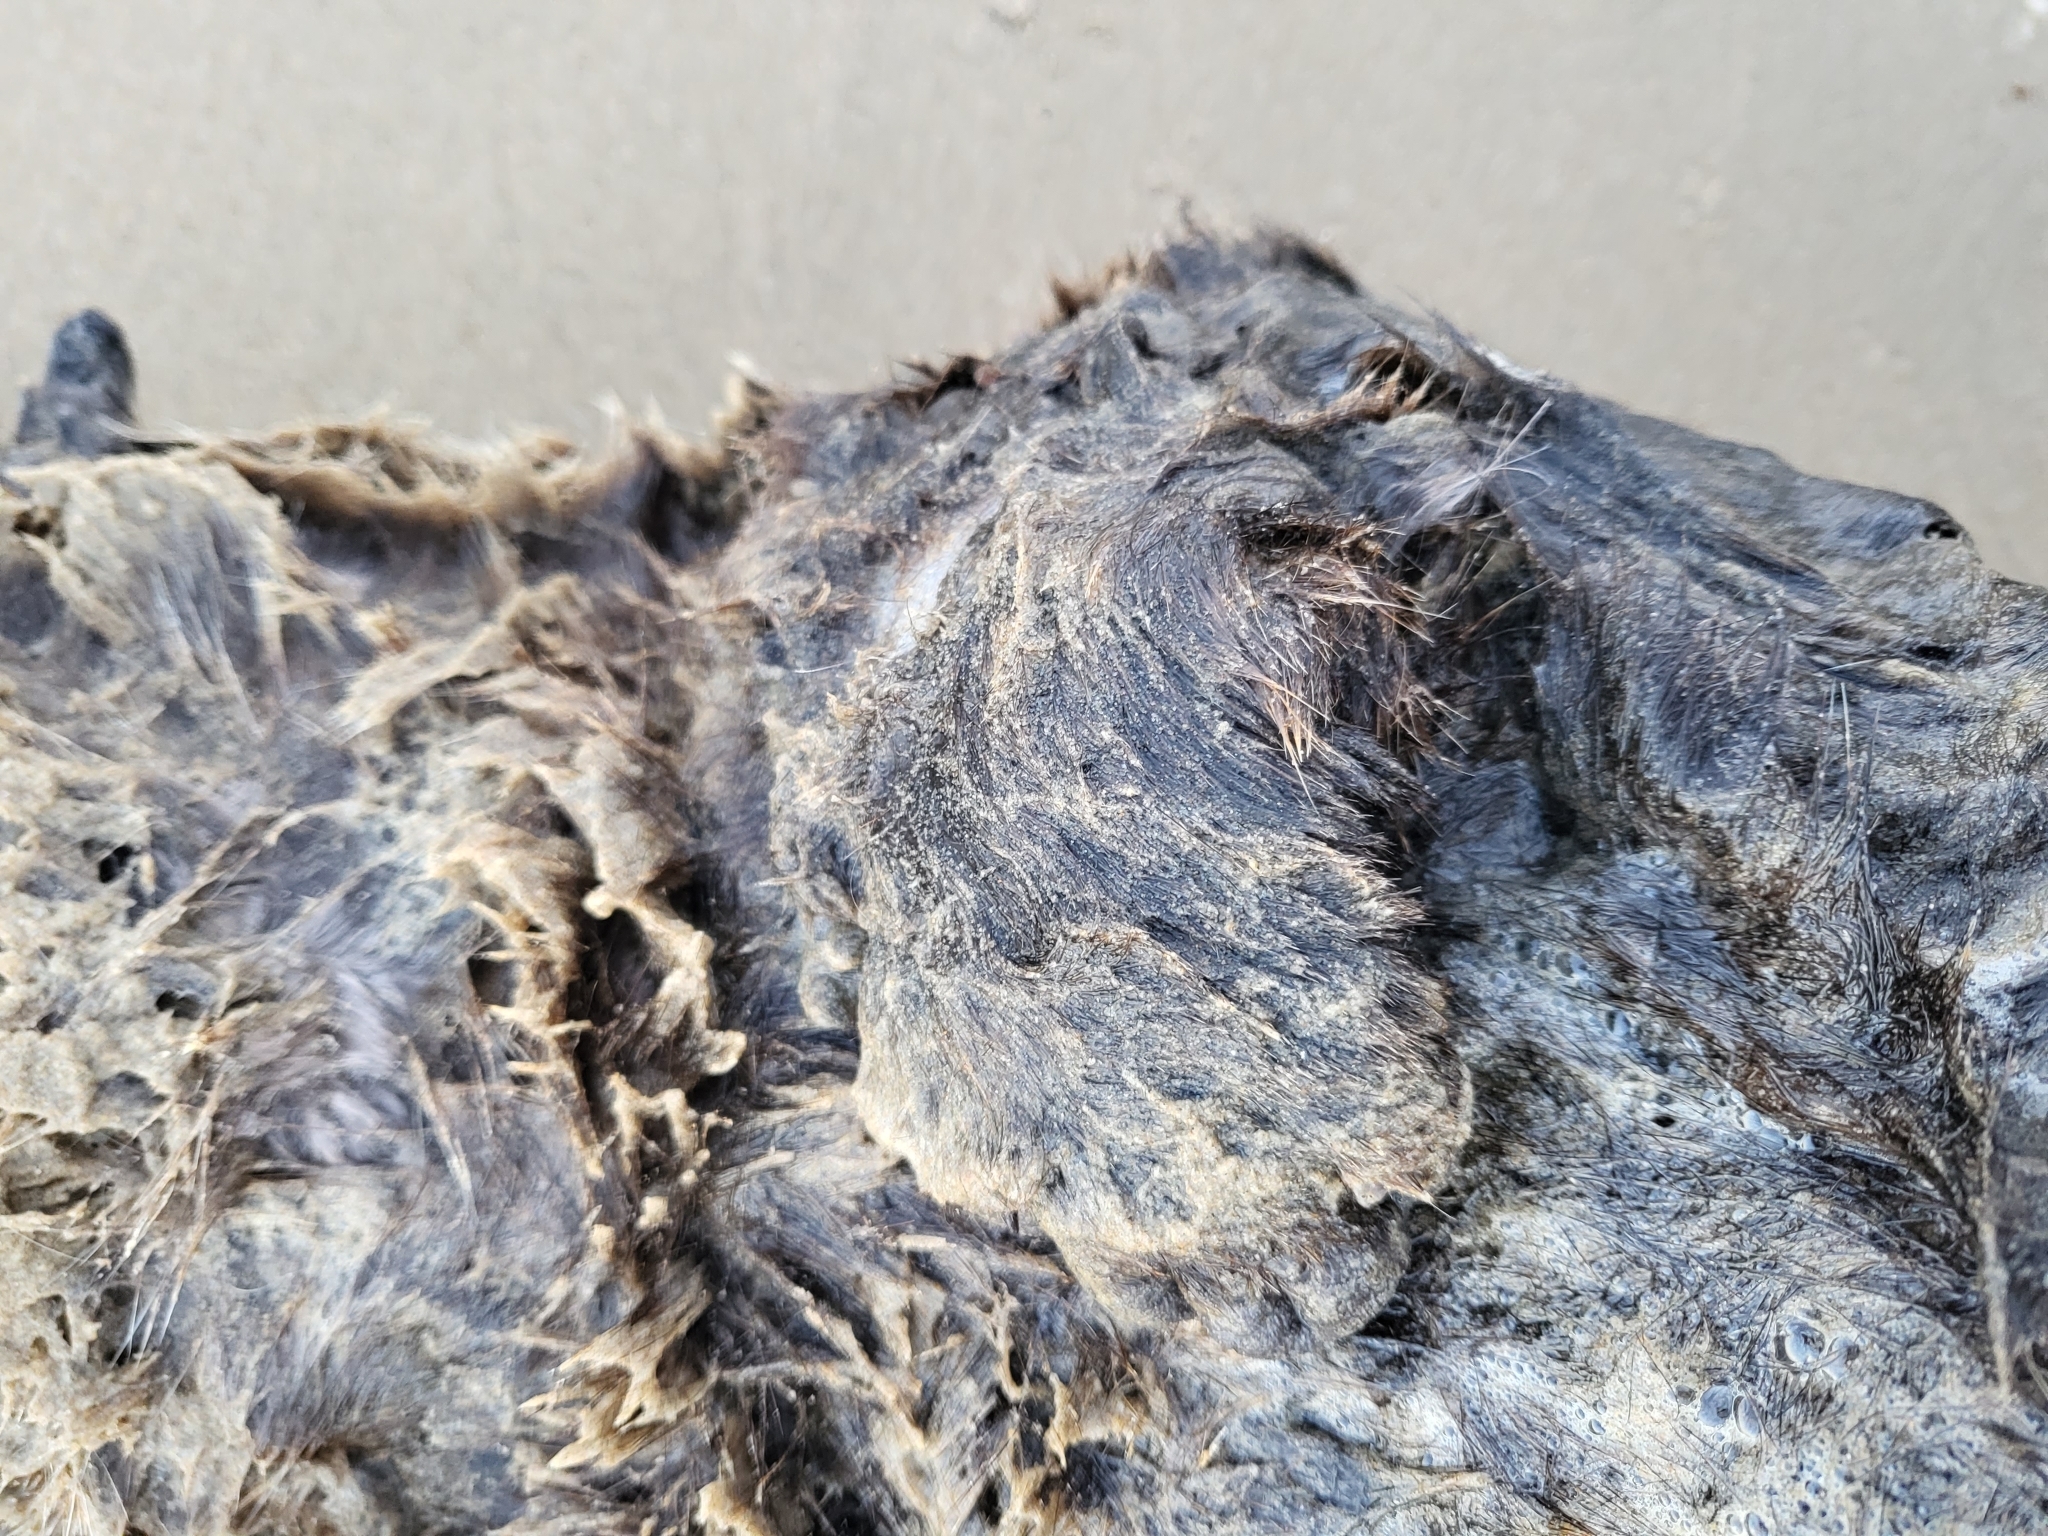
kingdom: Animalia
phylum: Chordata
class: Mammalia
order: Carnivora
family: Mustelidae
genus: Enhydra
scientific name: Enhydra lutris
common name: Sea otter
